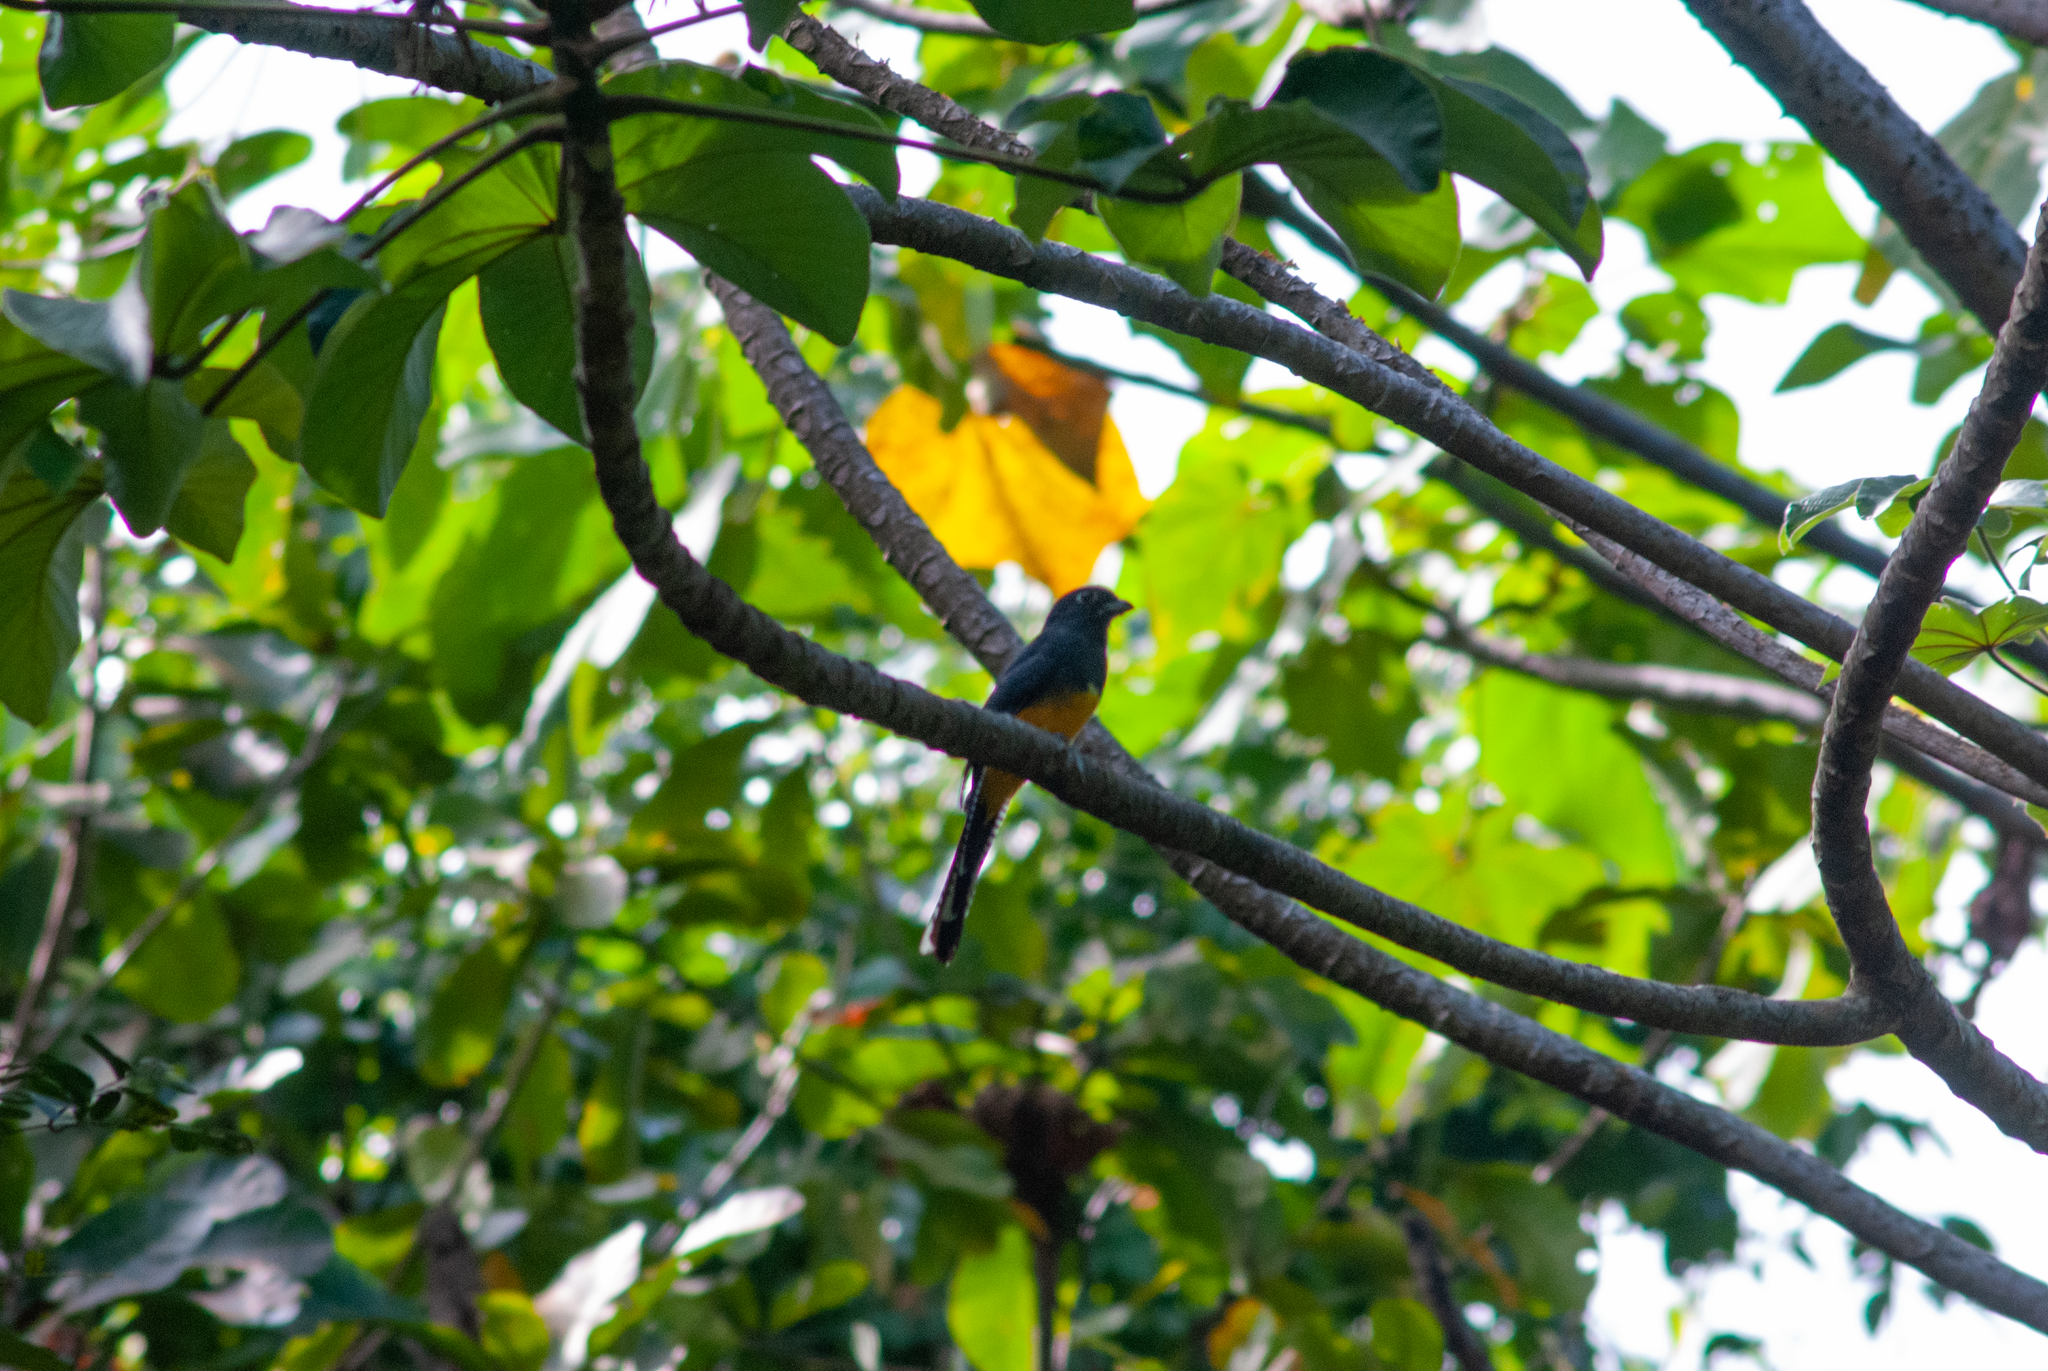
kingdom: Animalia
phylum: Chordata
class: Aves
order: Trogoniformes
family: Trogonidae
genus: Trogon
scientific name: Trogon caligatus
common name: Gartered trogon
